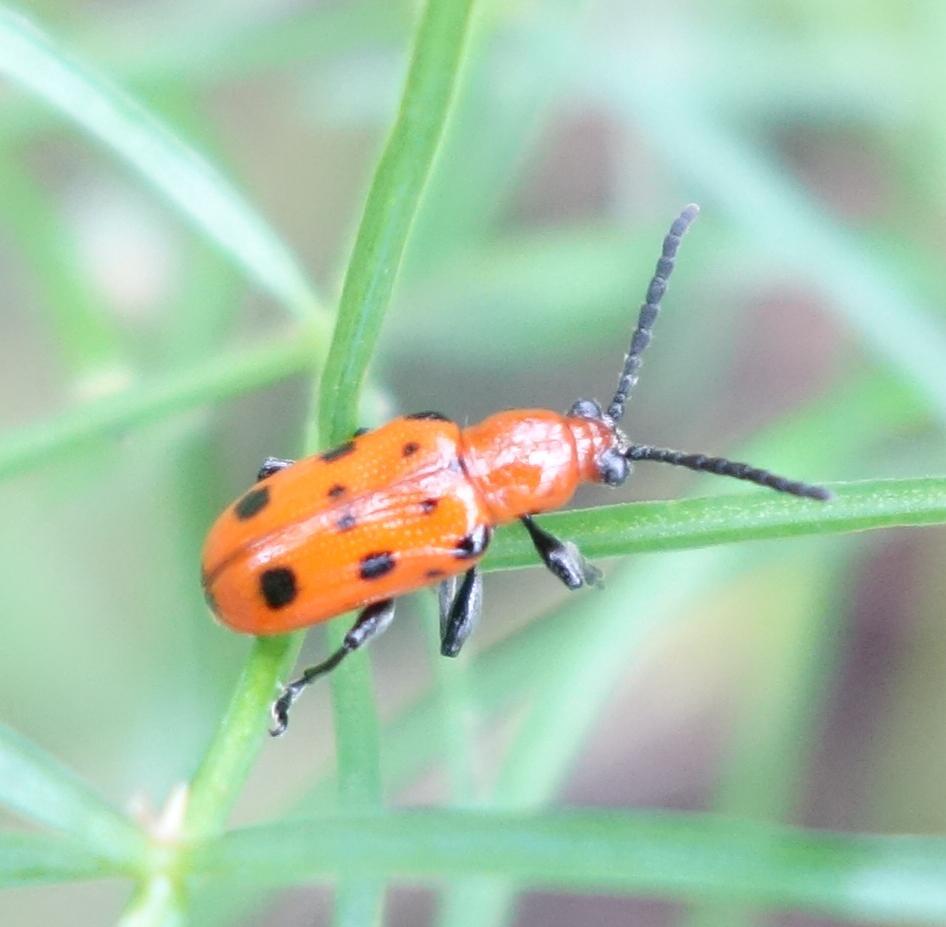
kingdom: Animalia
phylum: Arthropoda
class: Insecta
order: Coleoptera
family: Chrysomelidae
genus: Crioceris
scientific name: Crioceris quatuordecimpunctata
